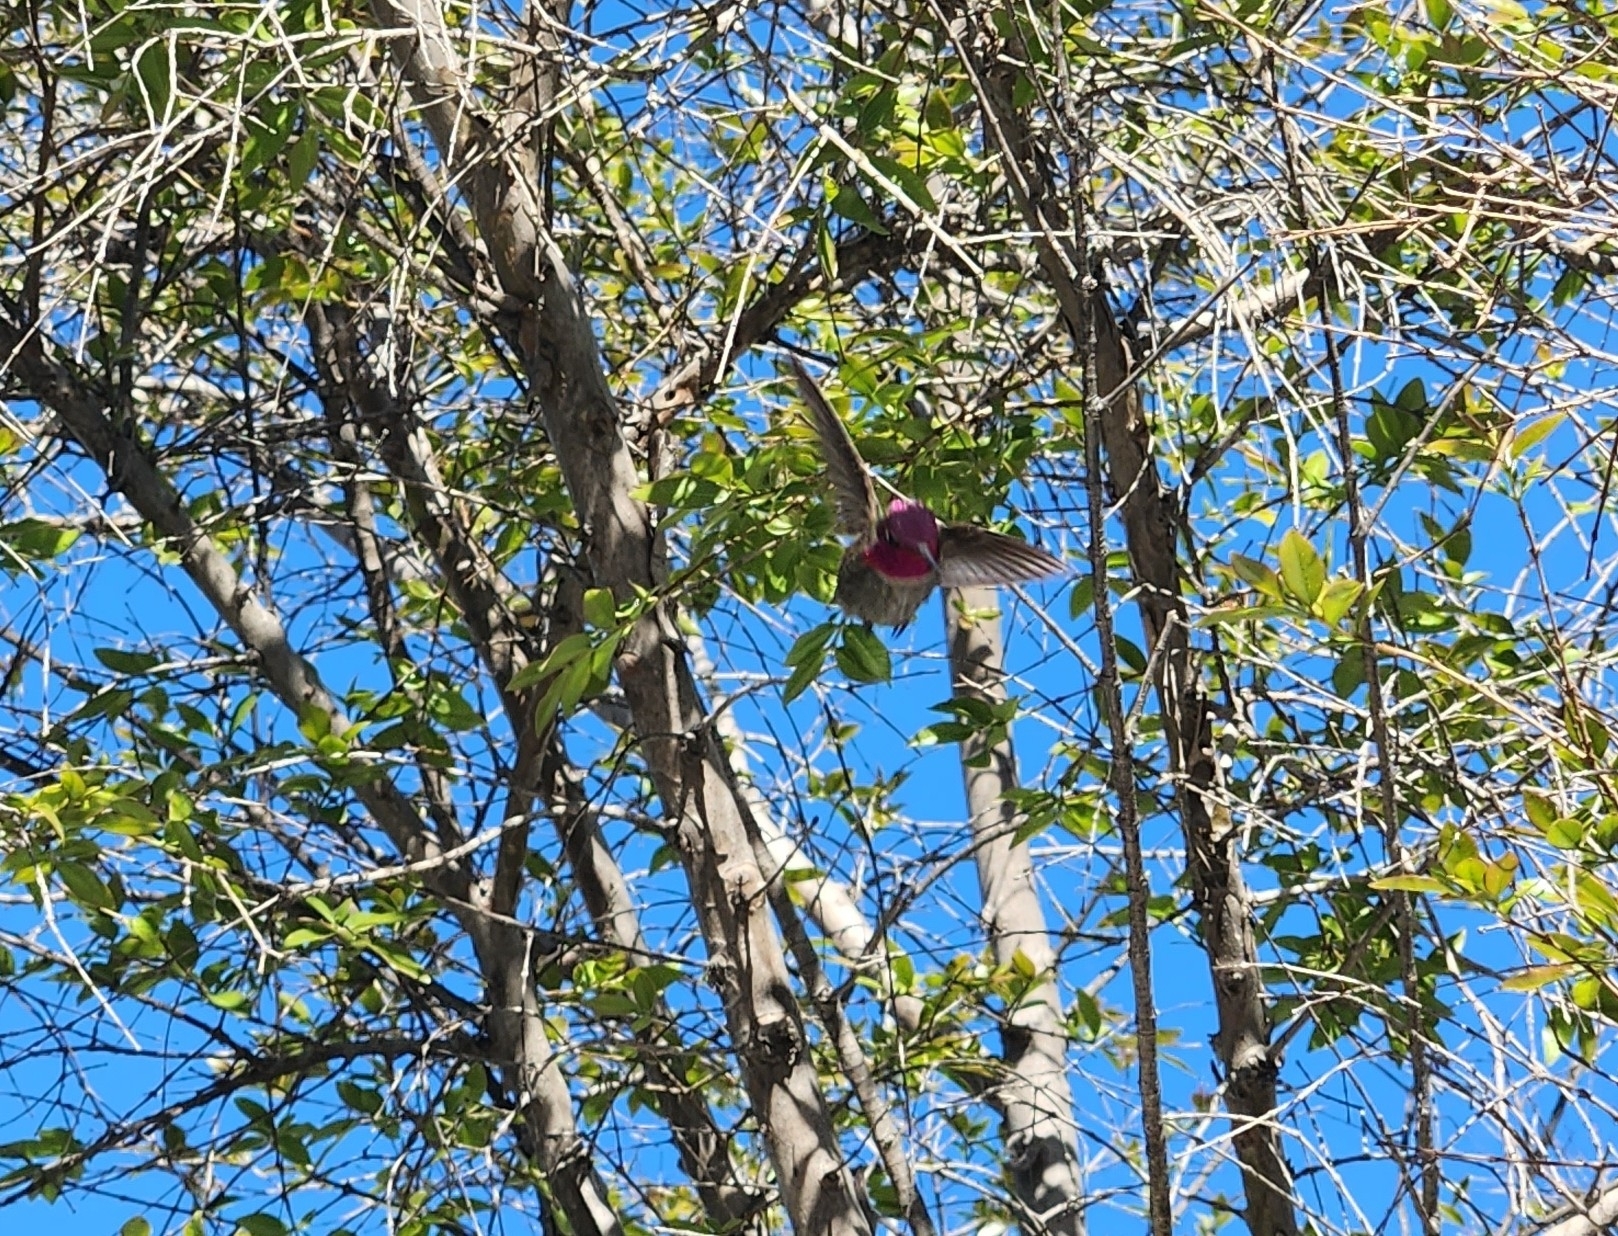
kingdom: Animalia
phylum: Chordata
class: Aves
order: Apodiformes
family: Trochilidae
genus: Calypte
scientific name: Calypte anna
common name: Anna's hummingbird
